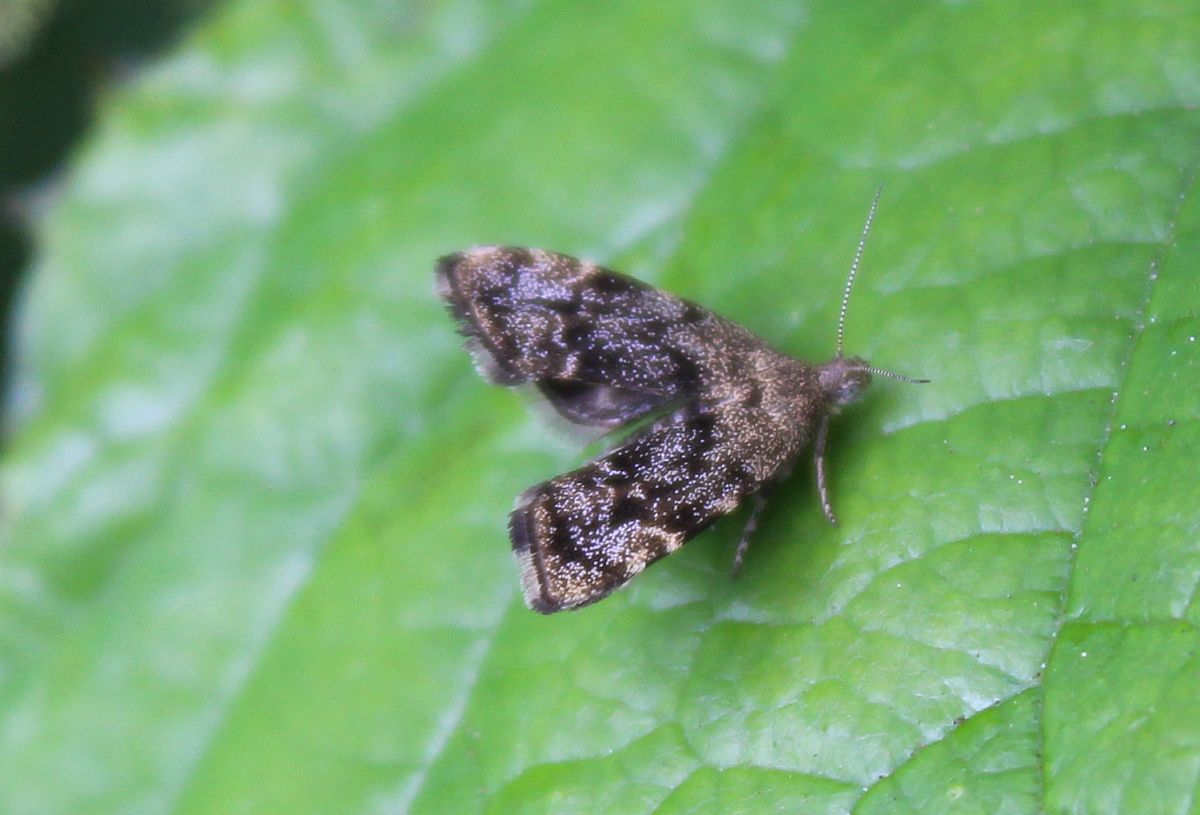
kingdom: Animalia
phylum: Arthropoda
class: Insecta
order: Lepidoptera
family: Choreutidae
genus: Anthophila
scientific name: Anthophila fabriciana
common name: Nettle-tap
